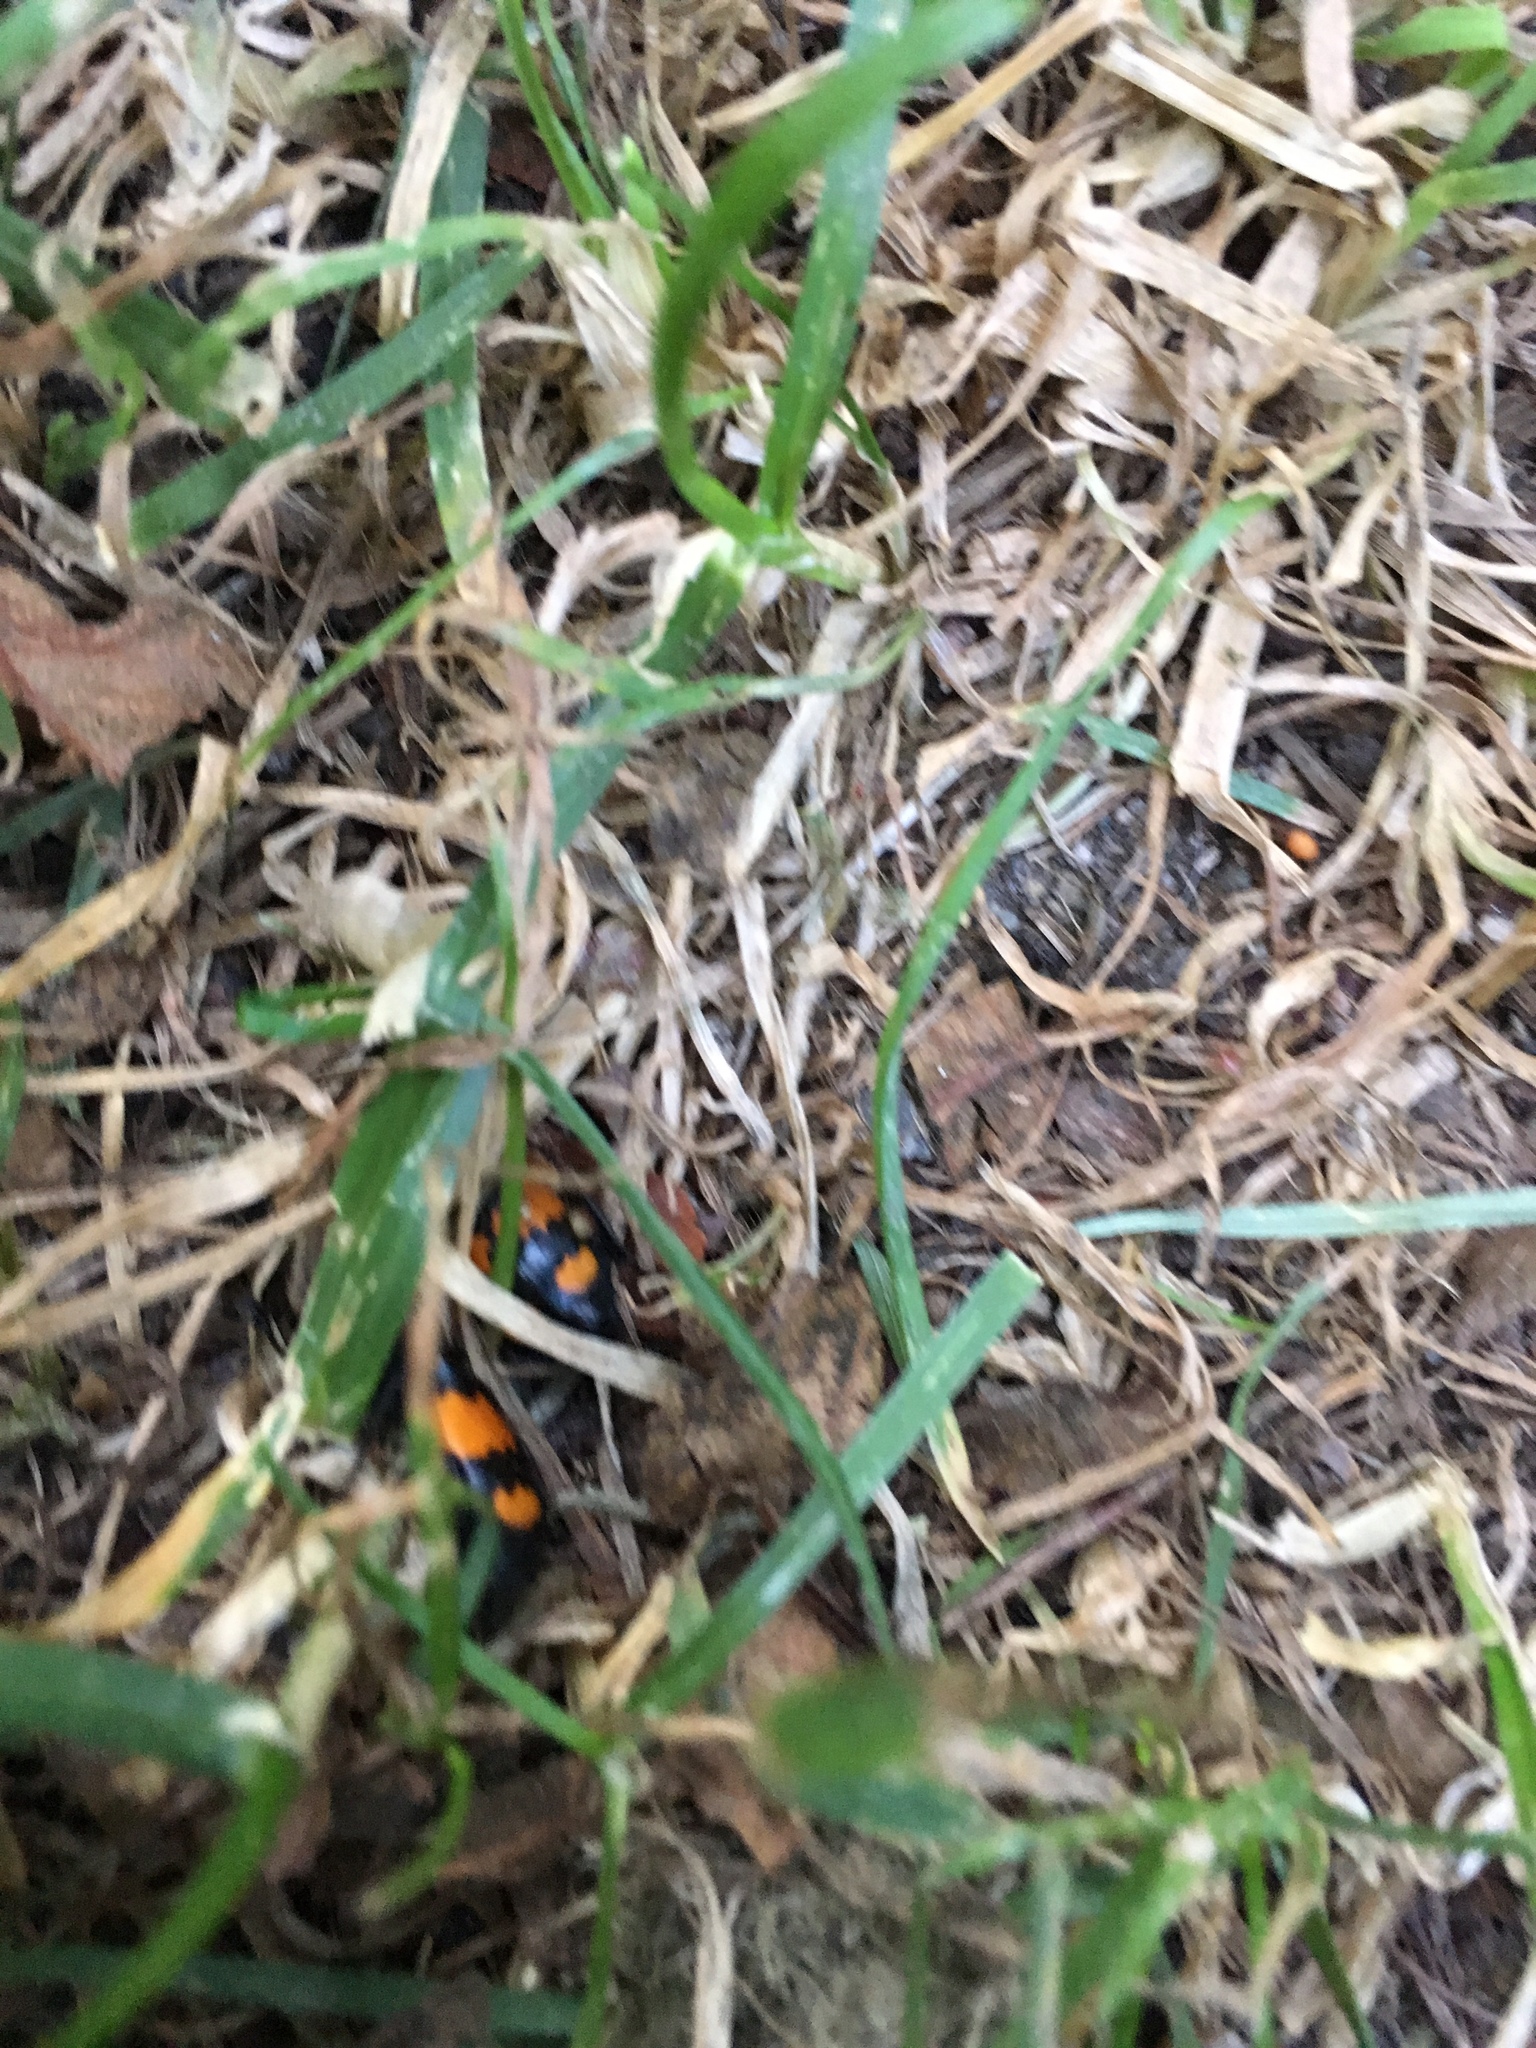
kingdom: Animalia
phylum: Arthropoda
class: Insecta
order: Coleoptera
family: Staphylinidae
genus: Nicrophorus
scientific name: Nicrophorus vespilloides
